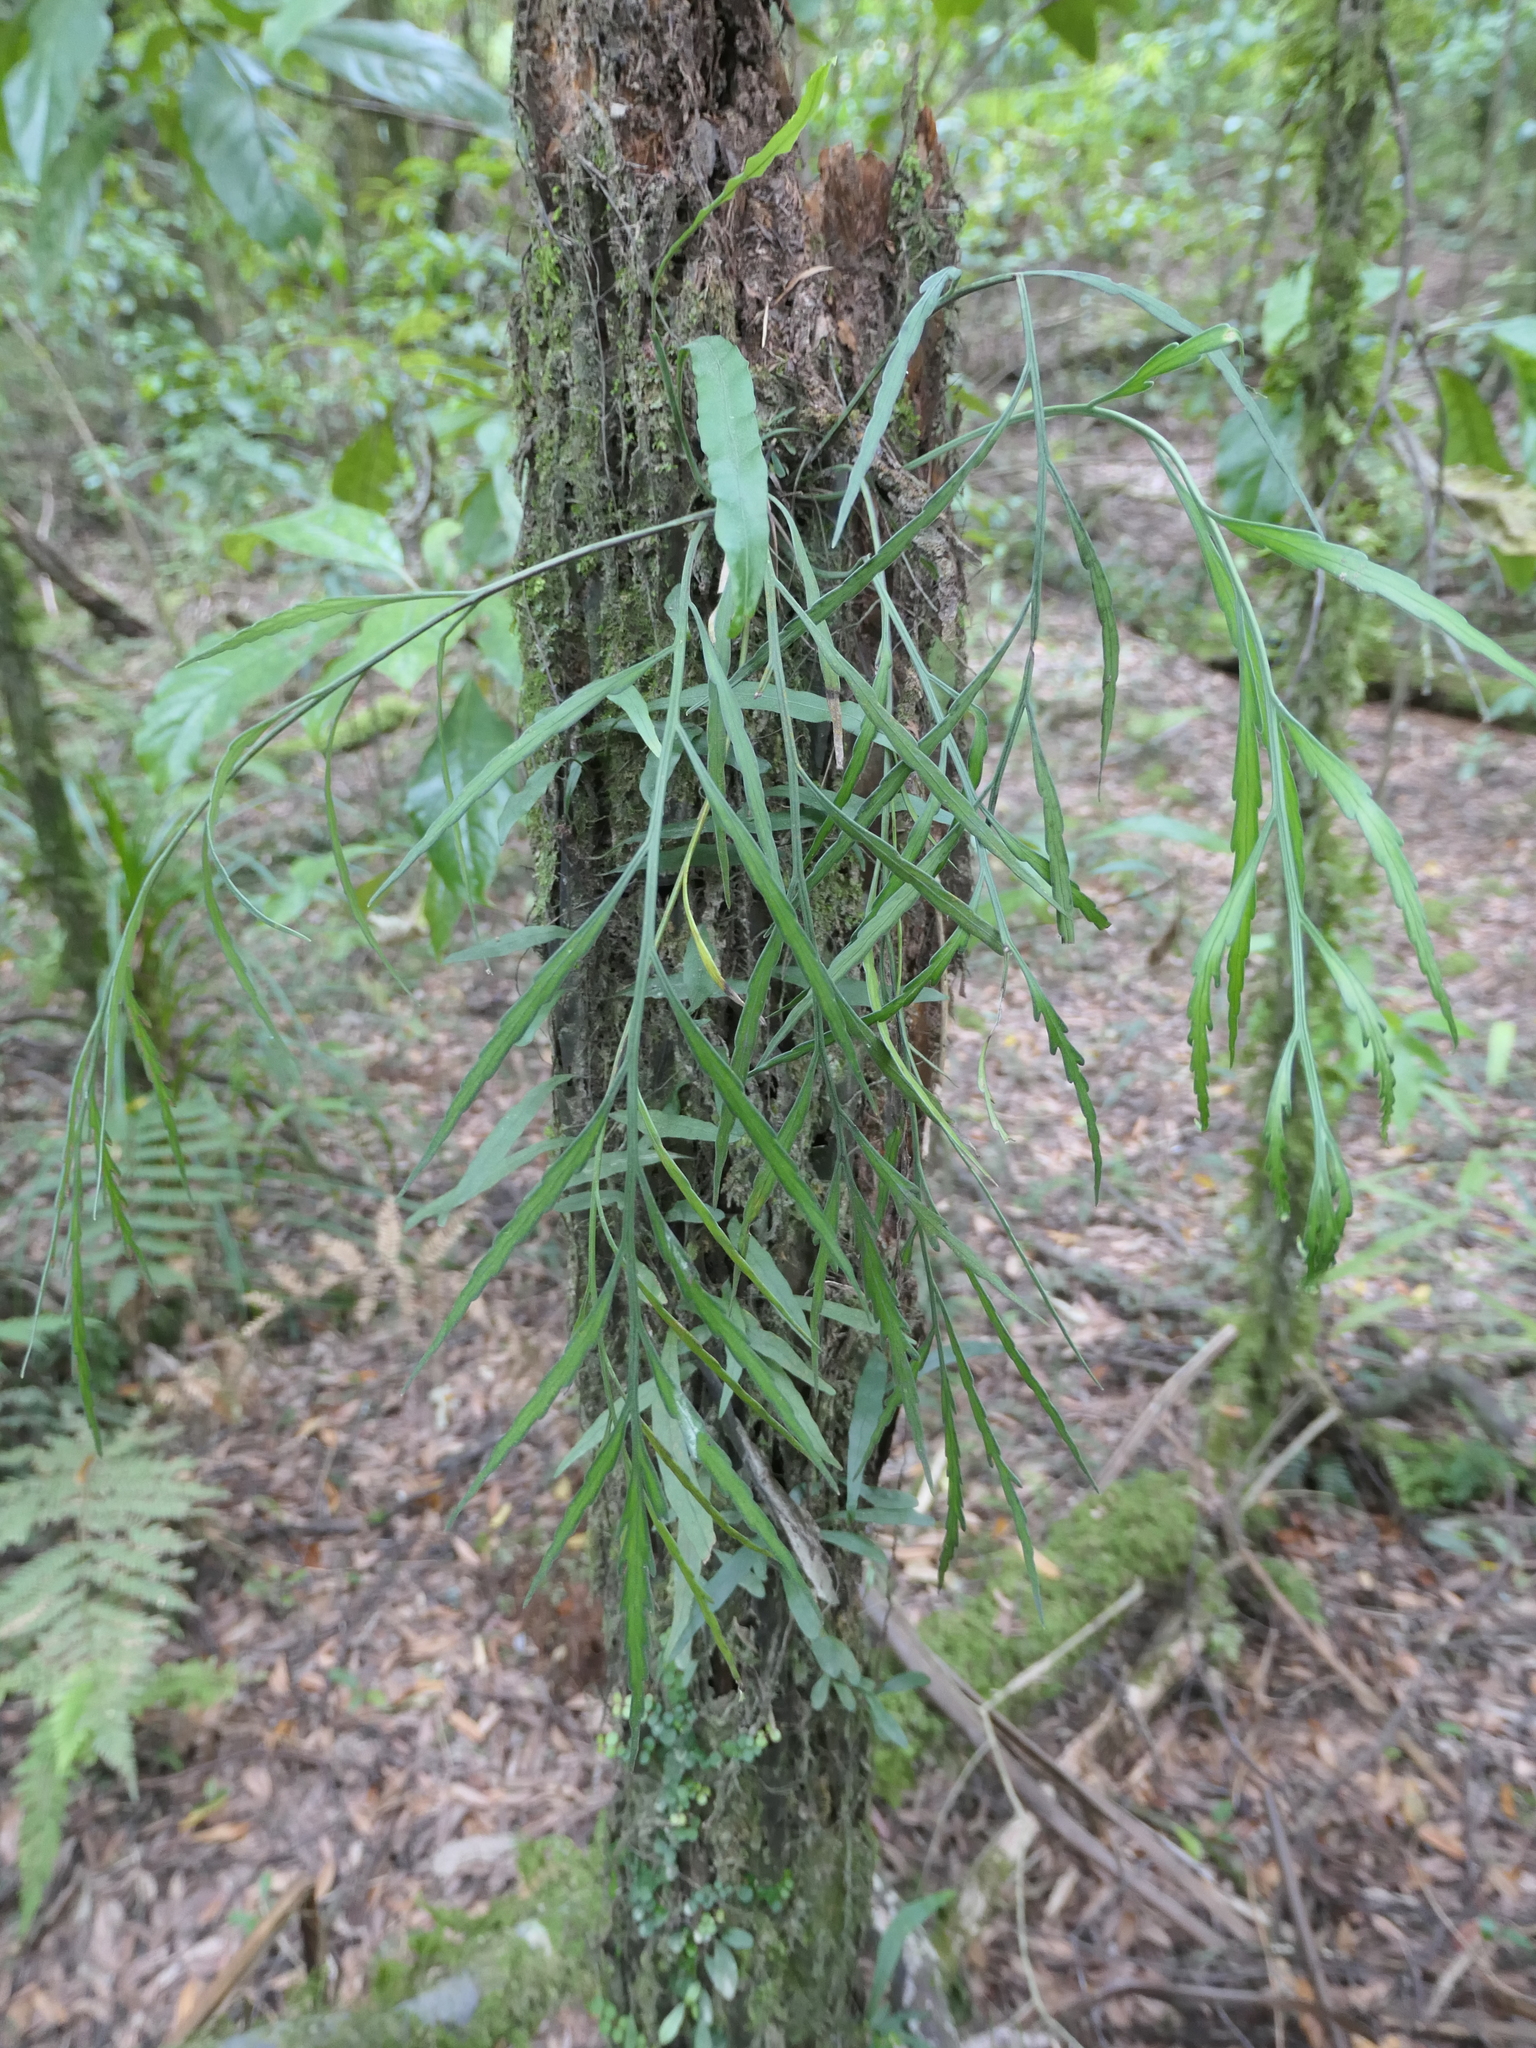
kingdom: Plantae
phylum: Tracheophyta
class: Polypodiopsida
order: Polypodiales
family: Aspleniaceae
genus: Asplenium
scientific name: Asplenium flaccidum
